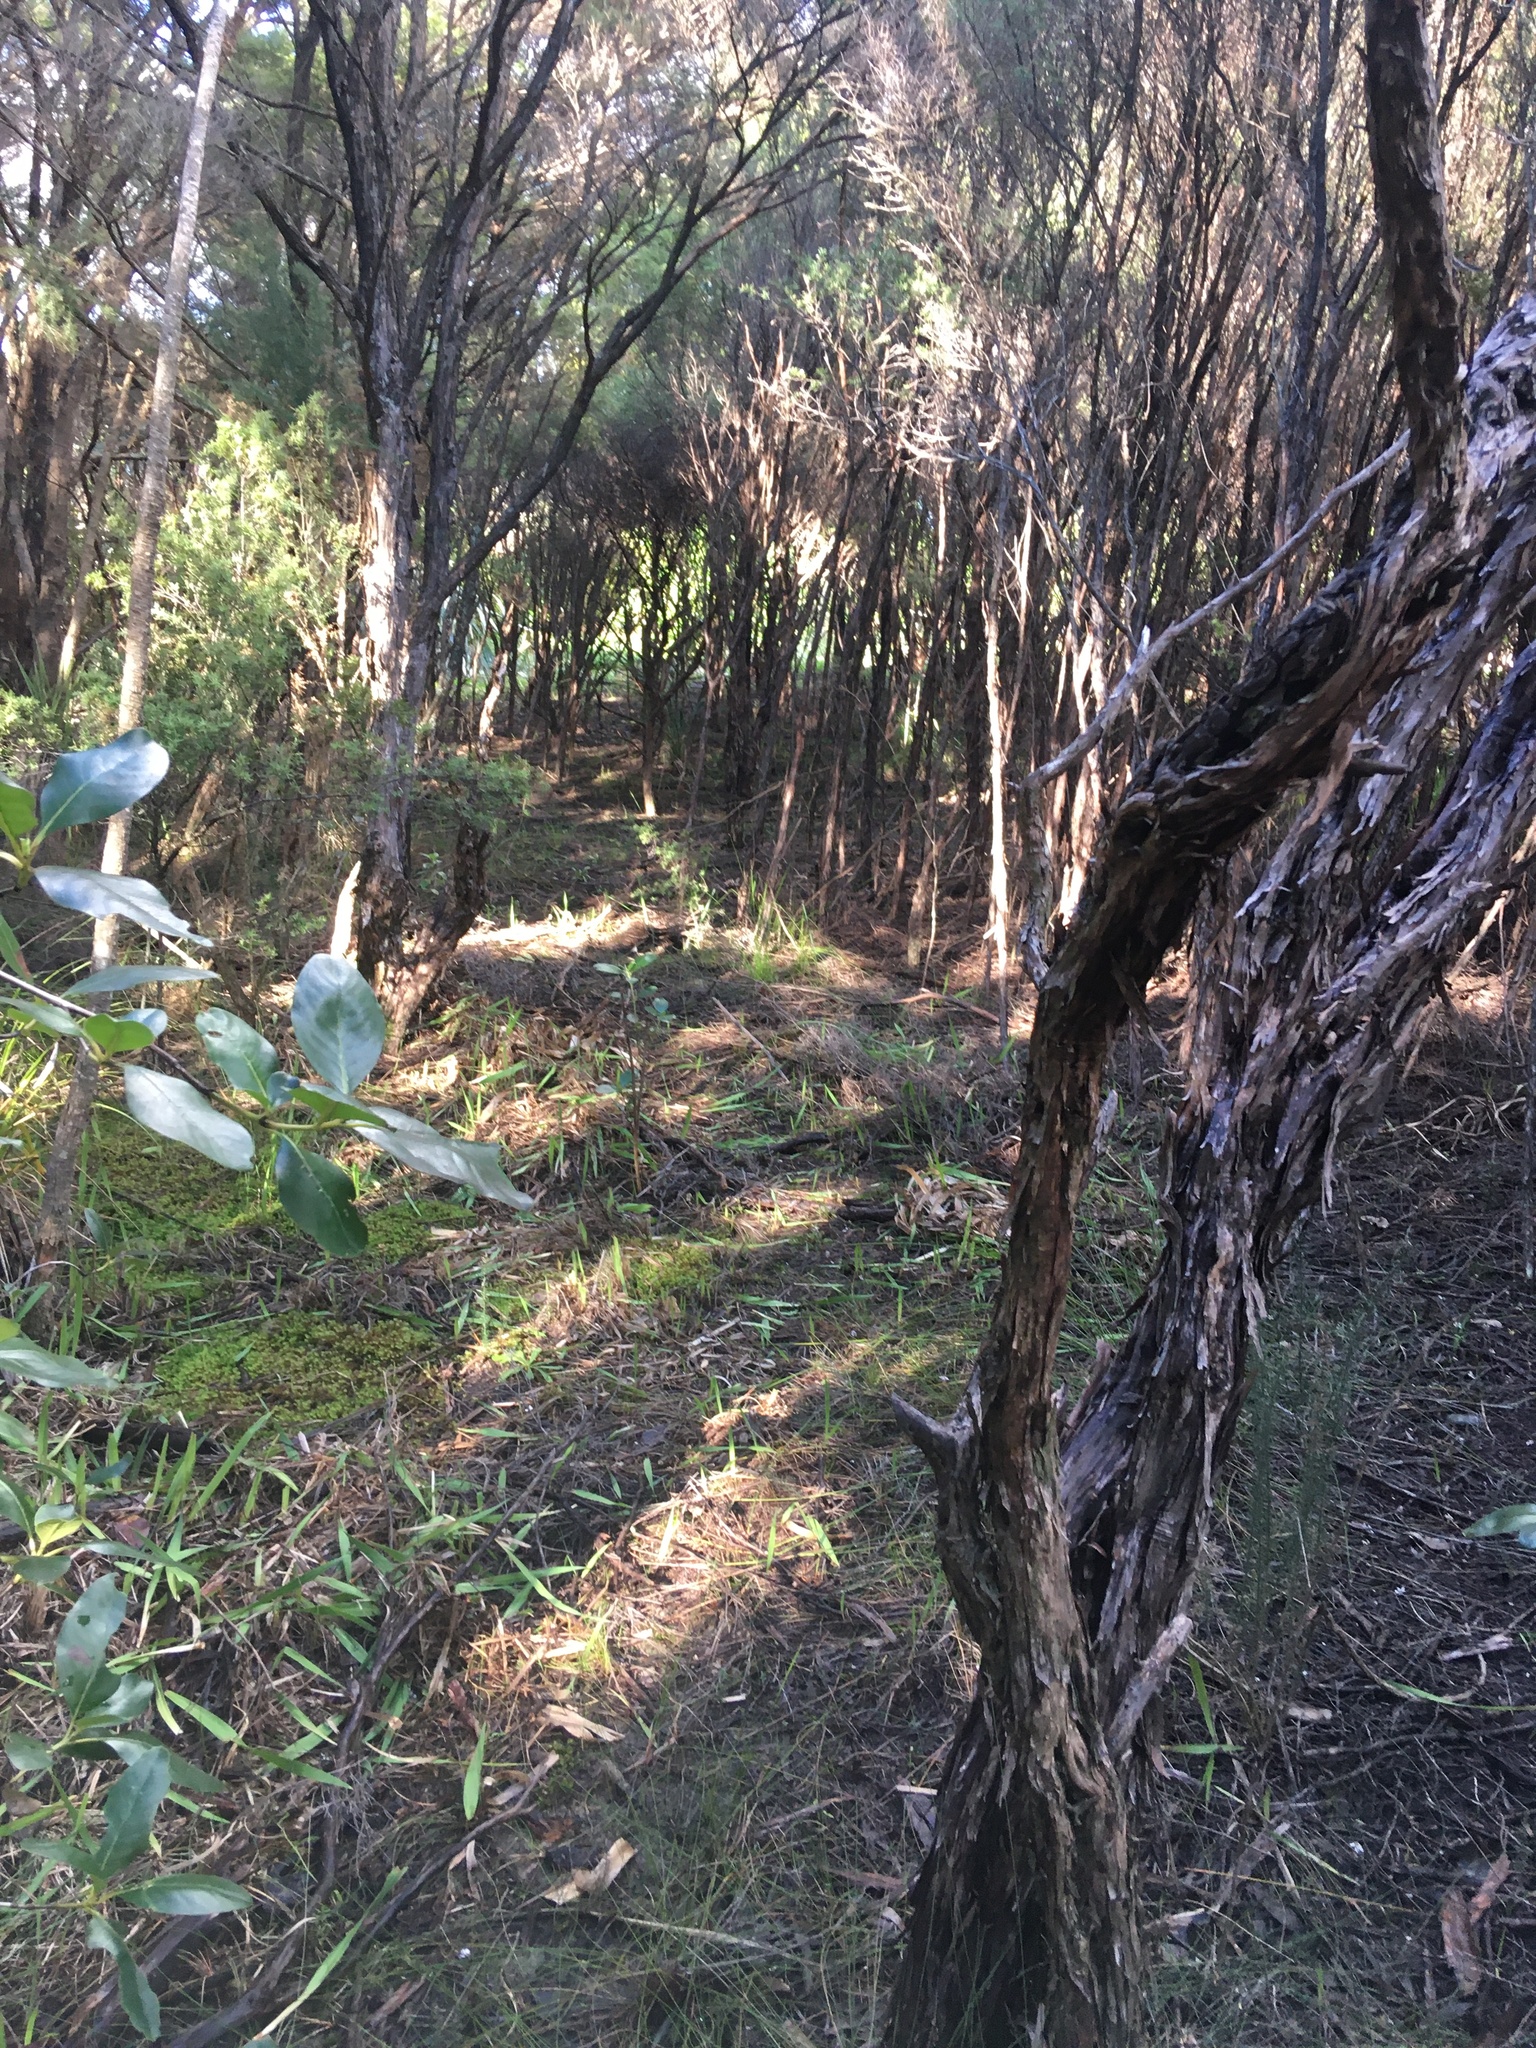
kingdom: Plantae
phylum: Bryophyta
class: Bryopsida
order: Ptychomniales
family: Ptychomniaceae
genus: Ptychomnion
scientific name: Ptychomnion aciculare
